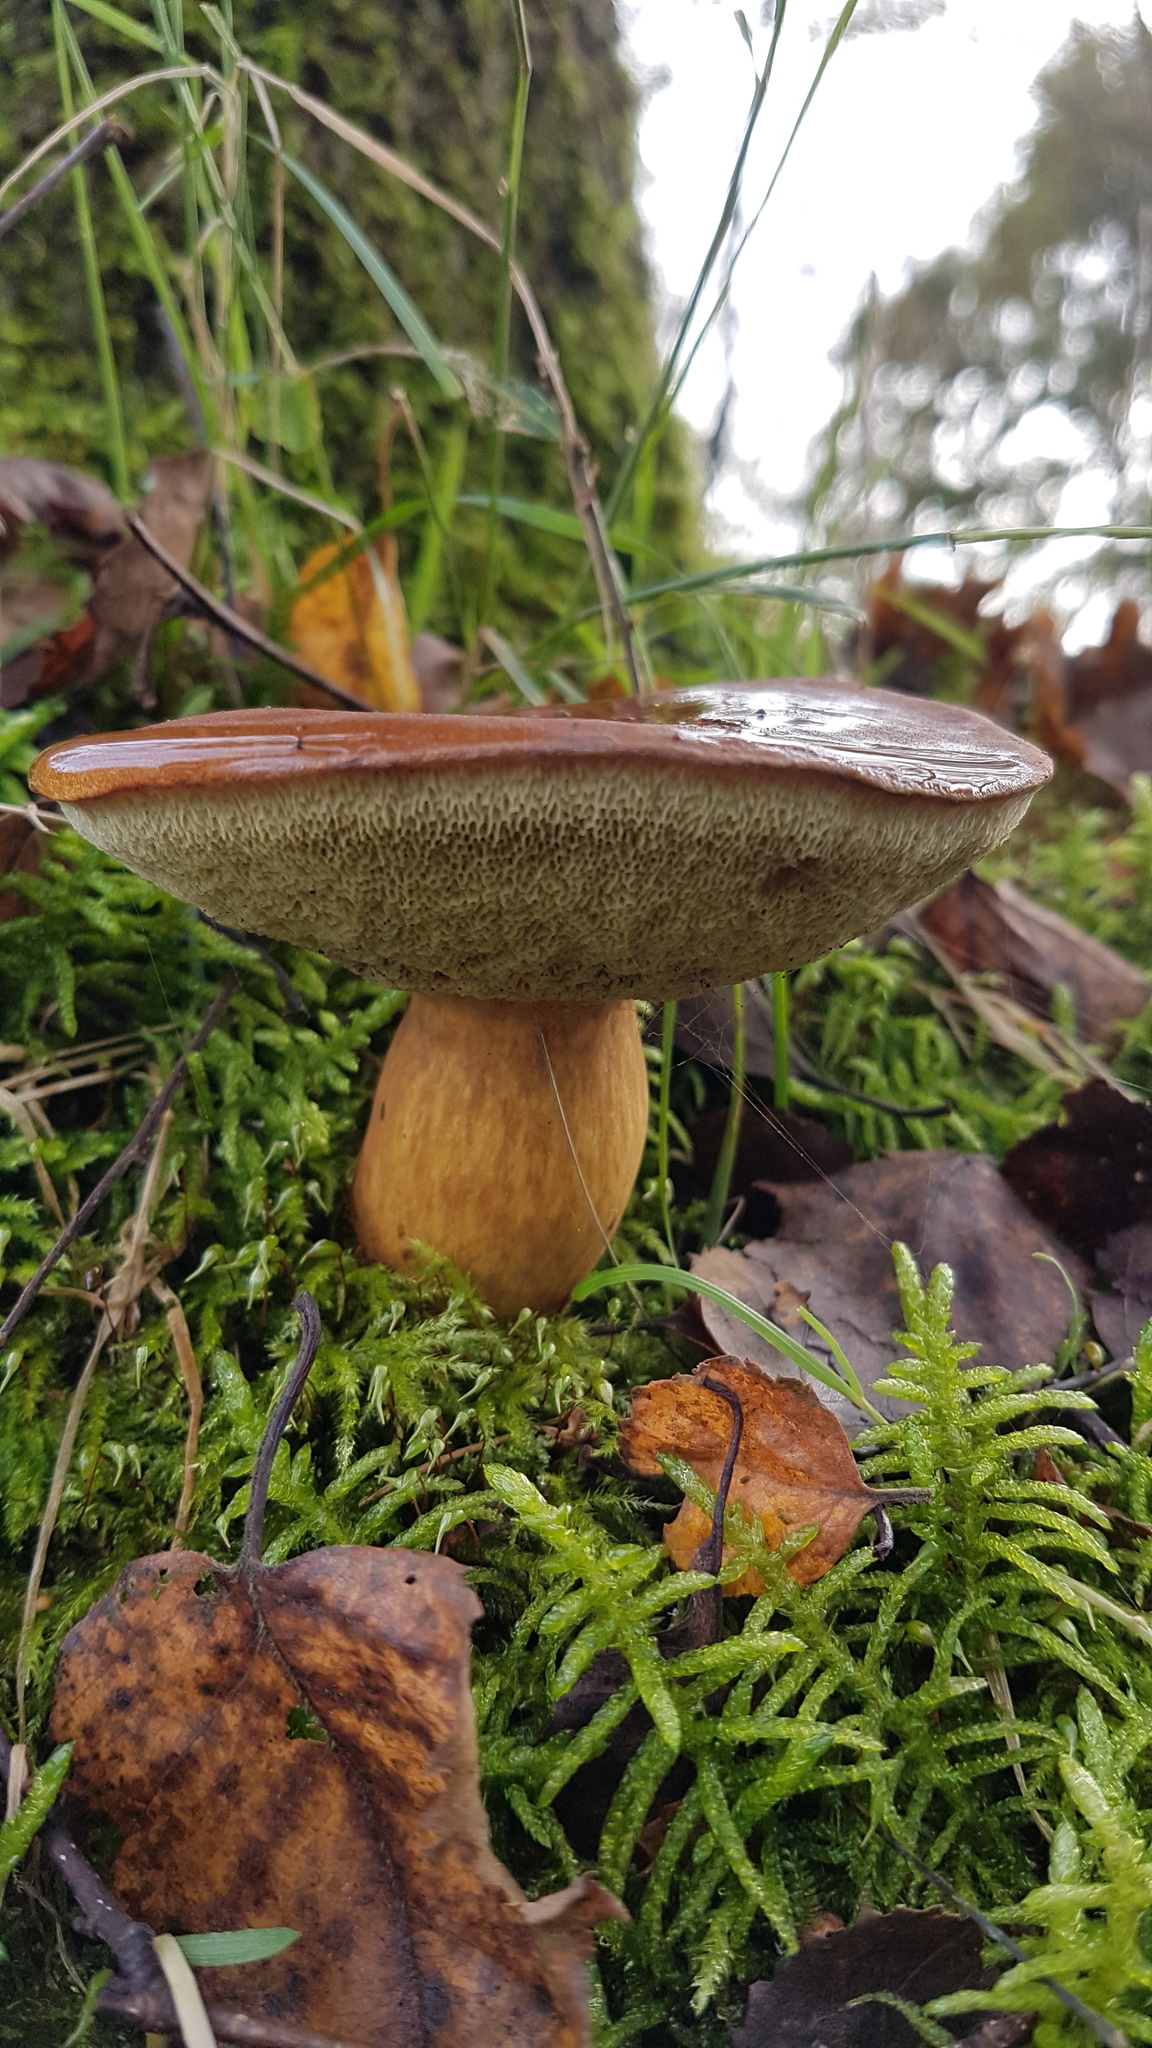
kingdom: Fungi
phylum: Basidiomycota
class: Agaricomycetes
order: Boletales
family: Boletaceae
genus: Imleria
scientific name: Imleria badia
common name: Bay bolete
